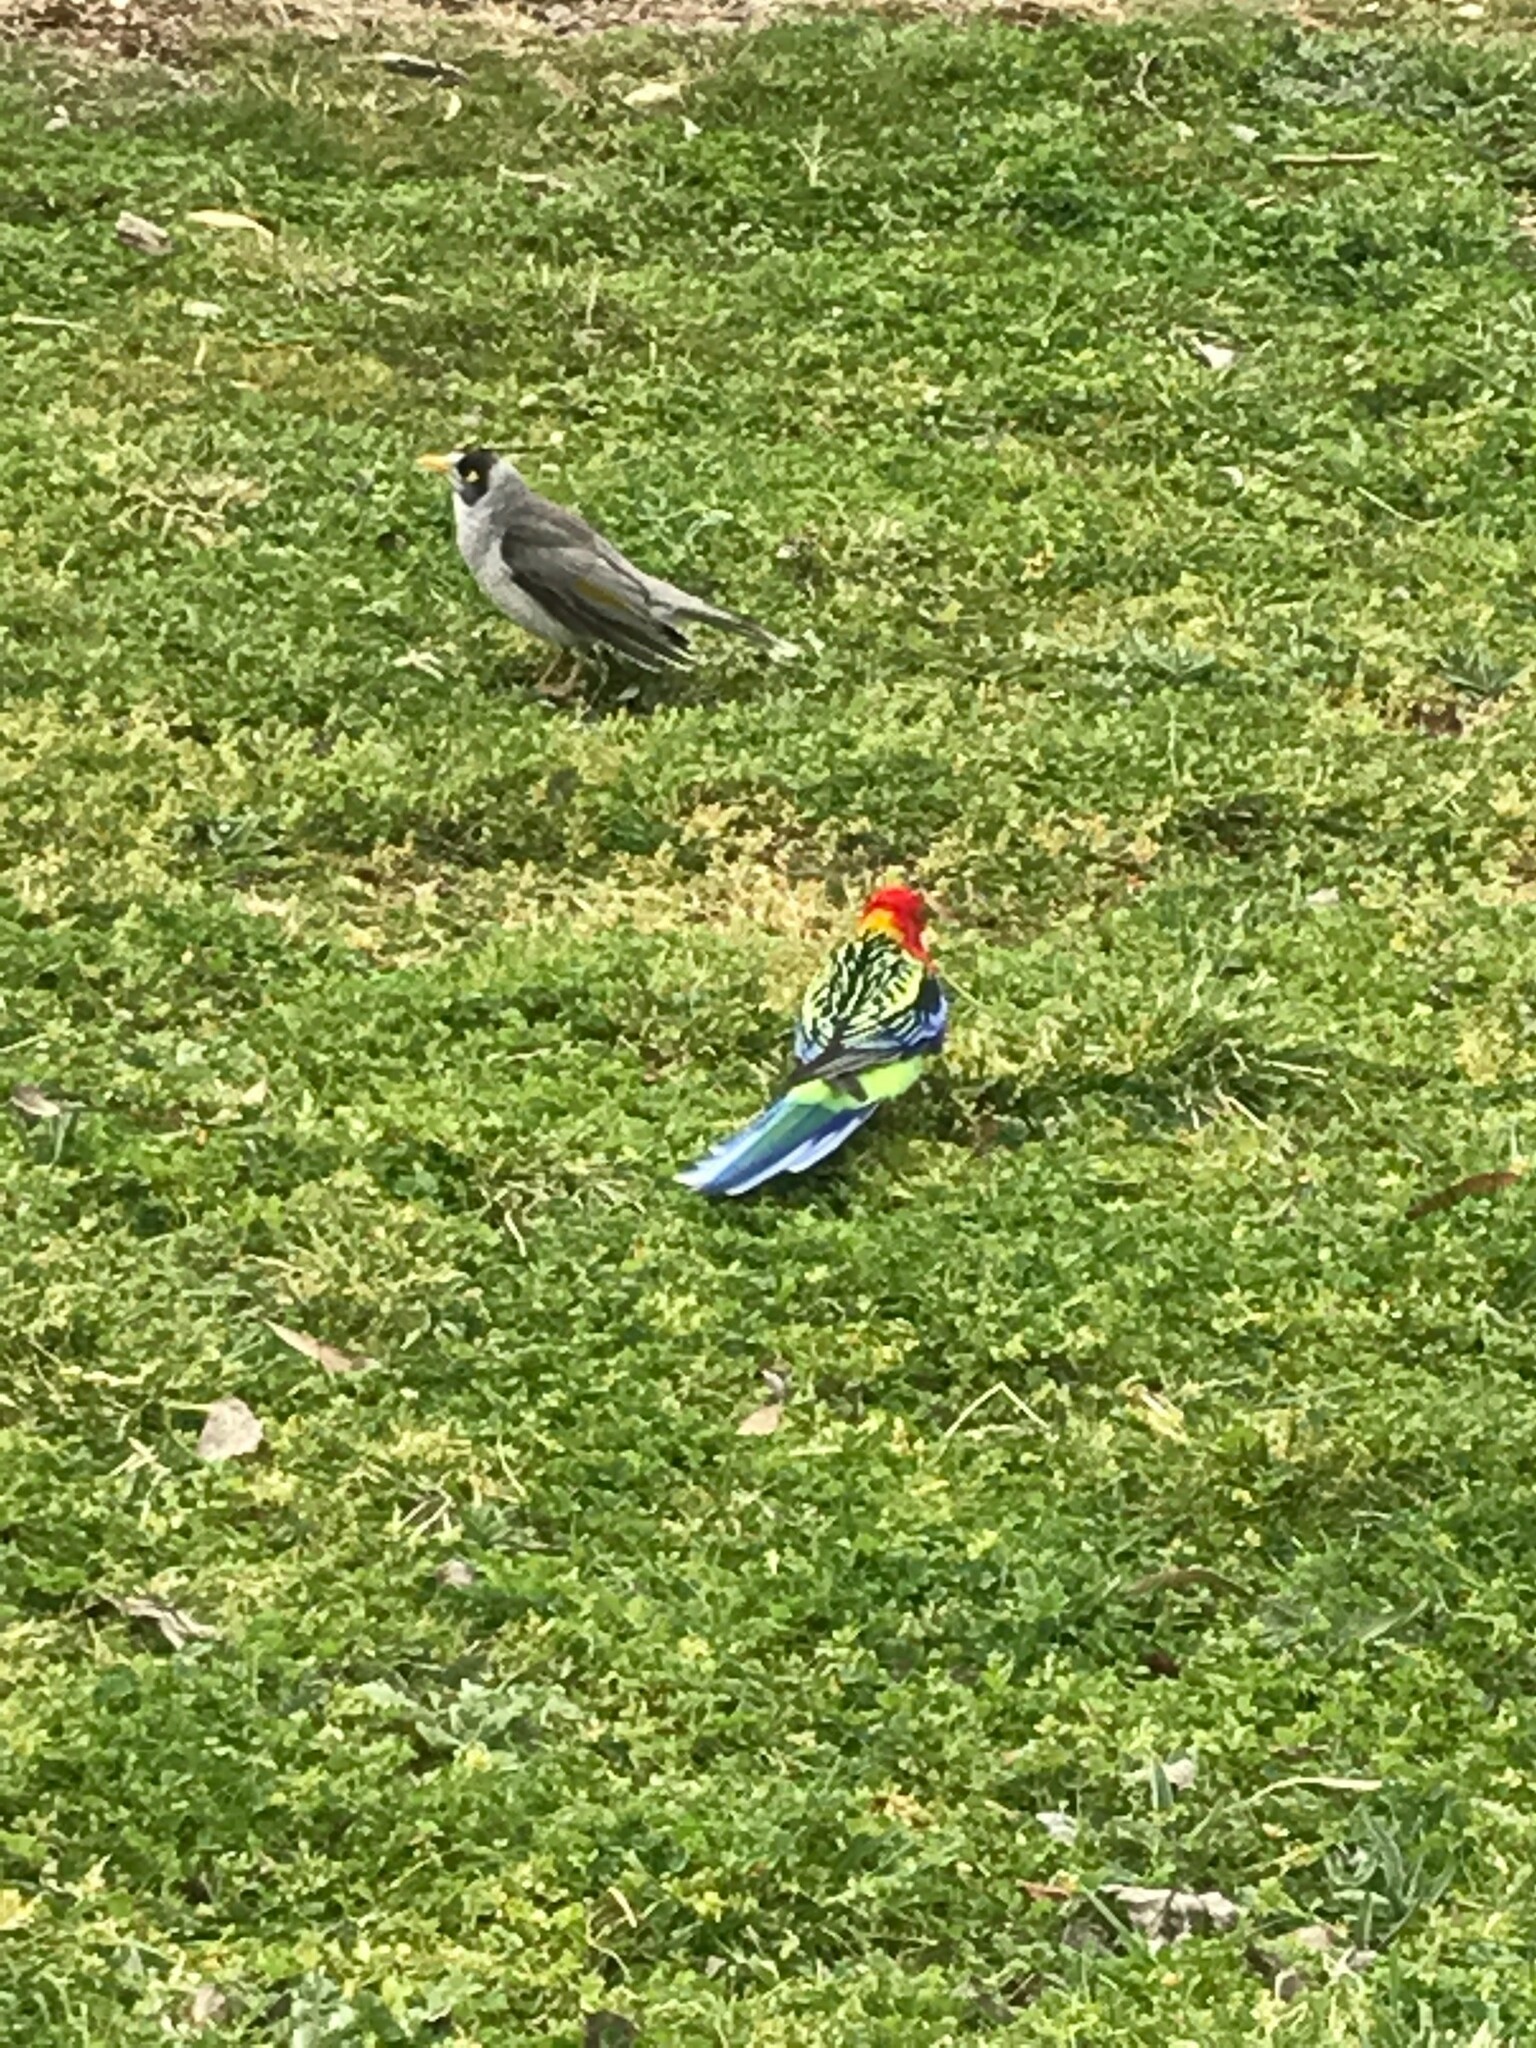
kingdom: Animalia
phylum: Chordata
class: Aves
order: Passeriformes
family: Meliphagidae
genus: Manorina
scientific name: Manorina melanocephala
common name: Noisy miner
